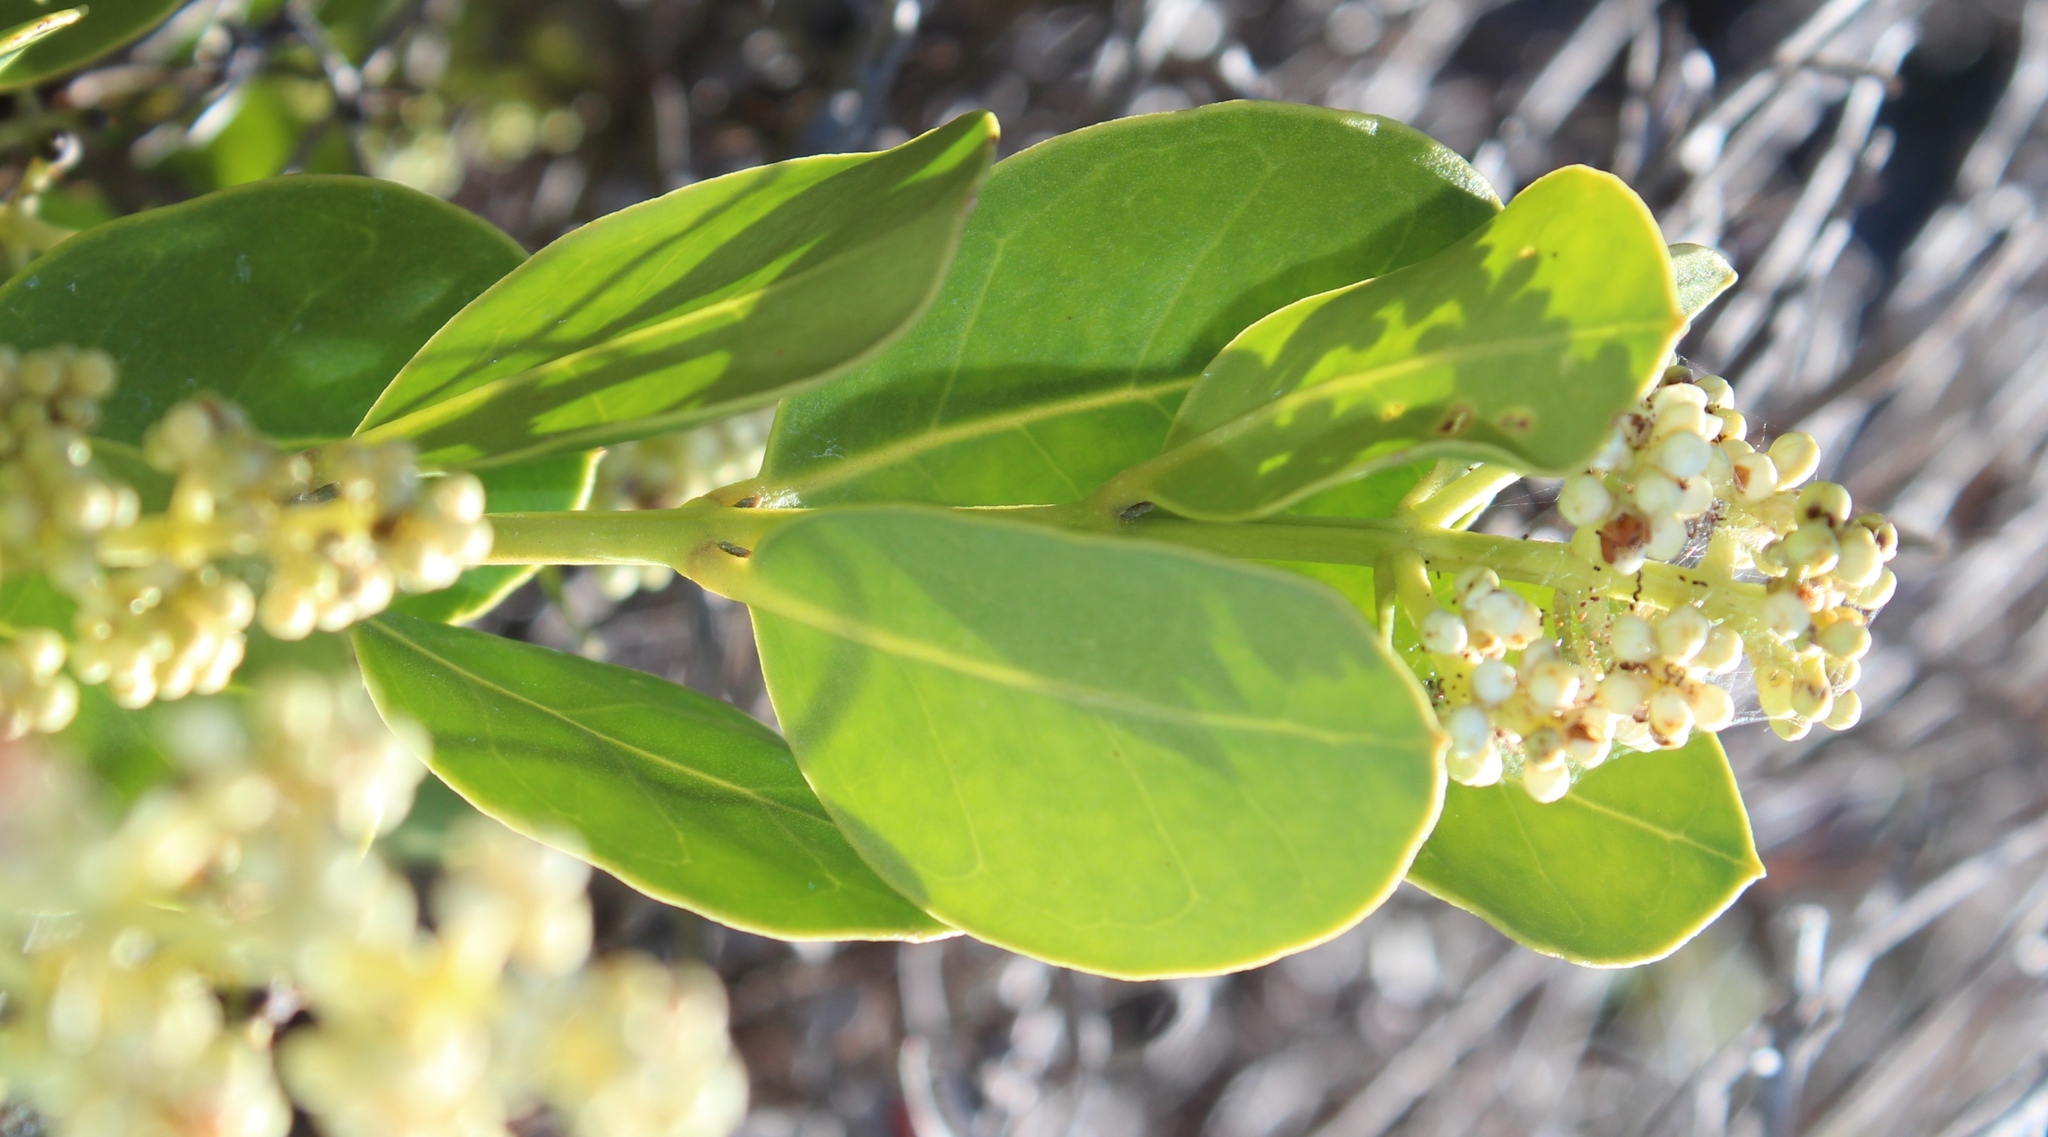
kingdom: Plantae
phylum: Tracheophyta
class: Magnoliopsida
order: Lamiales
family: Oleaceae
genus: Olea
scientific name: Olea capensis
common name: Black ironwood
